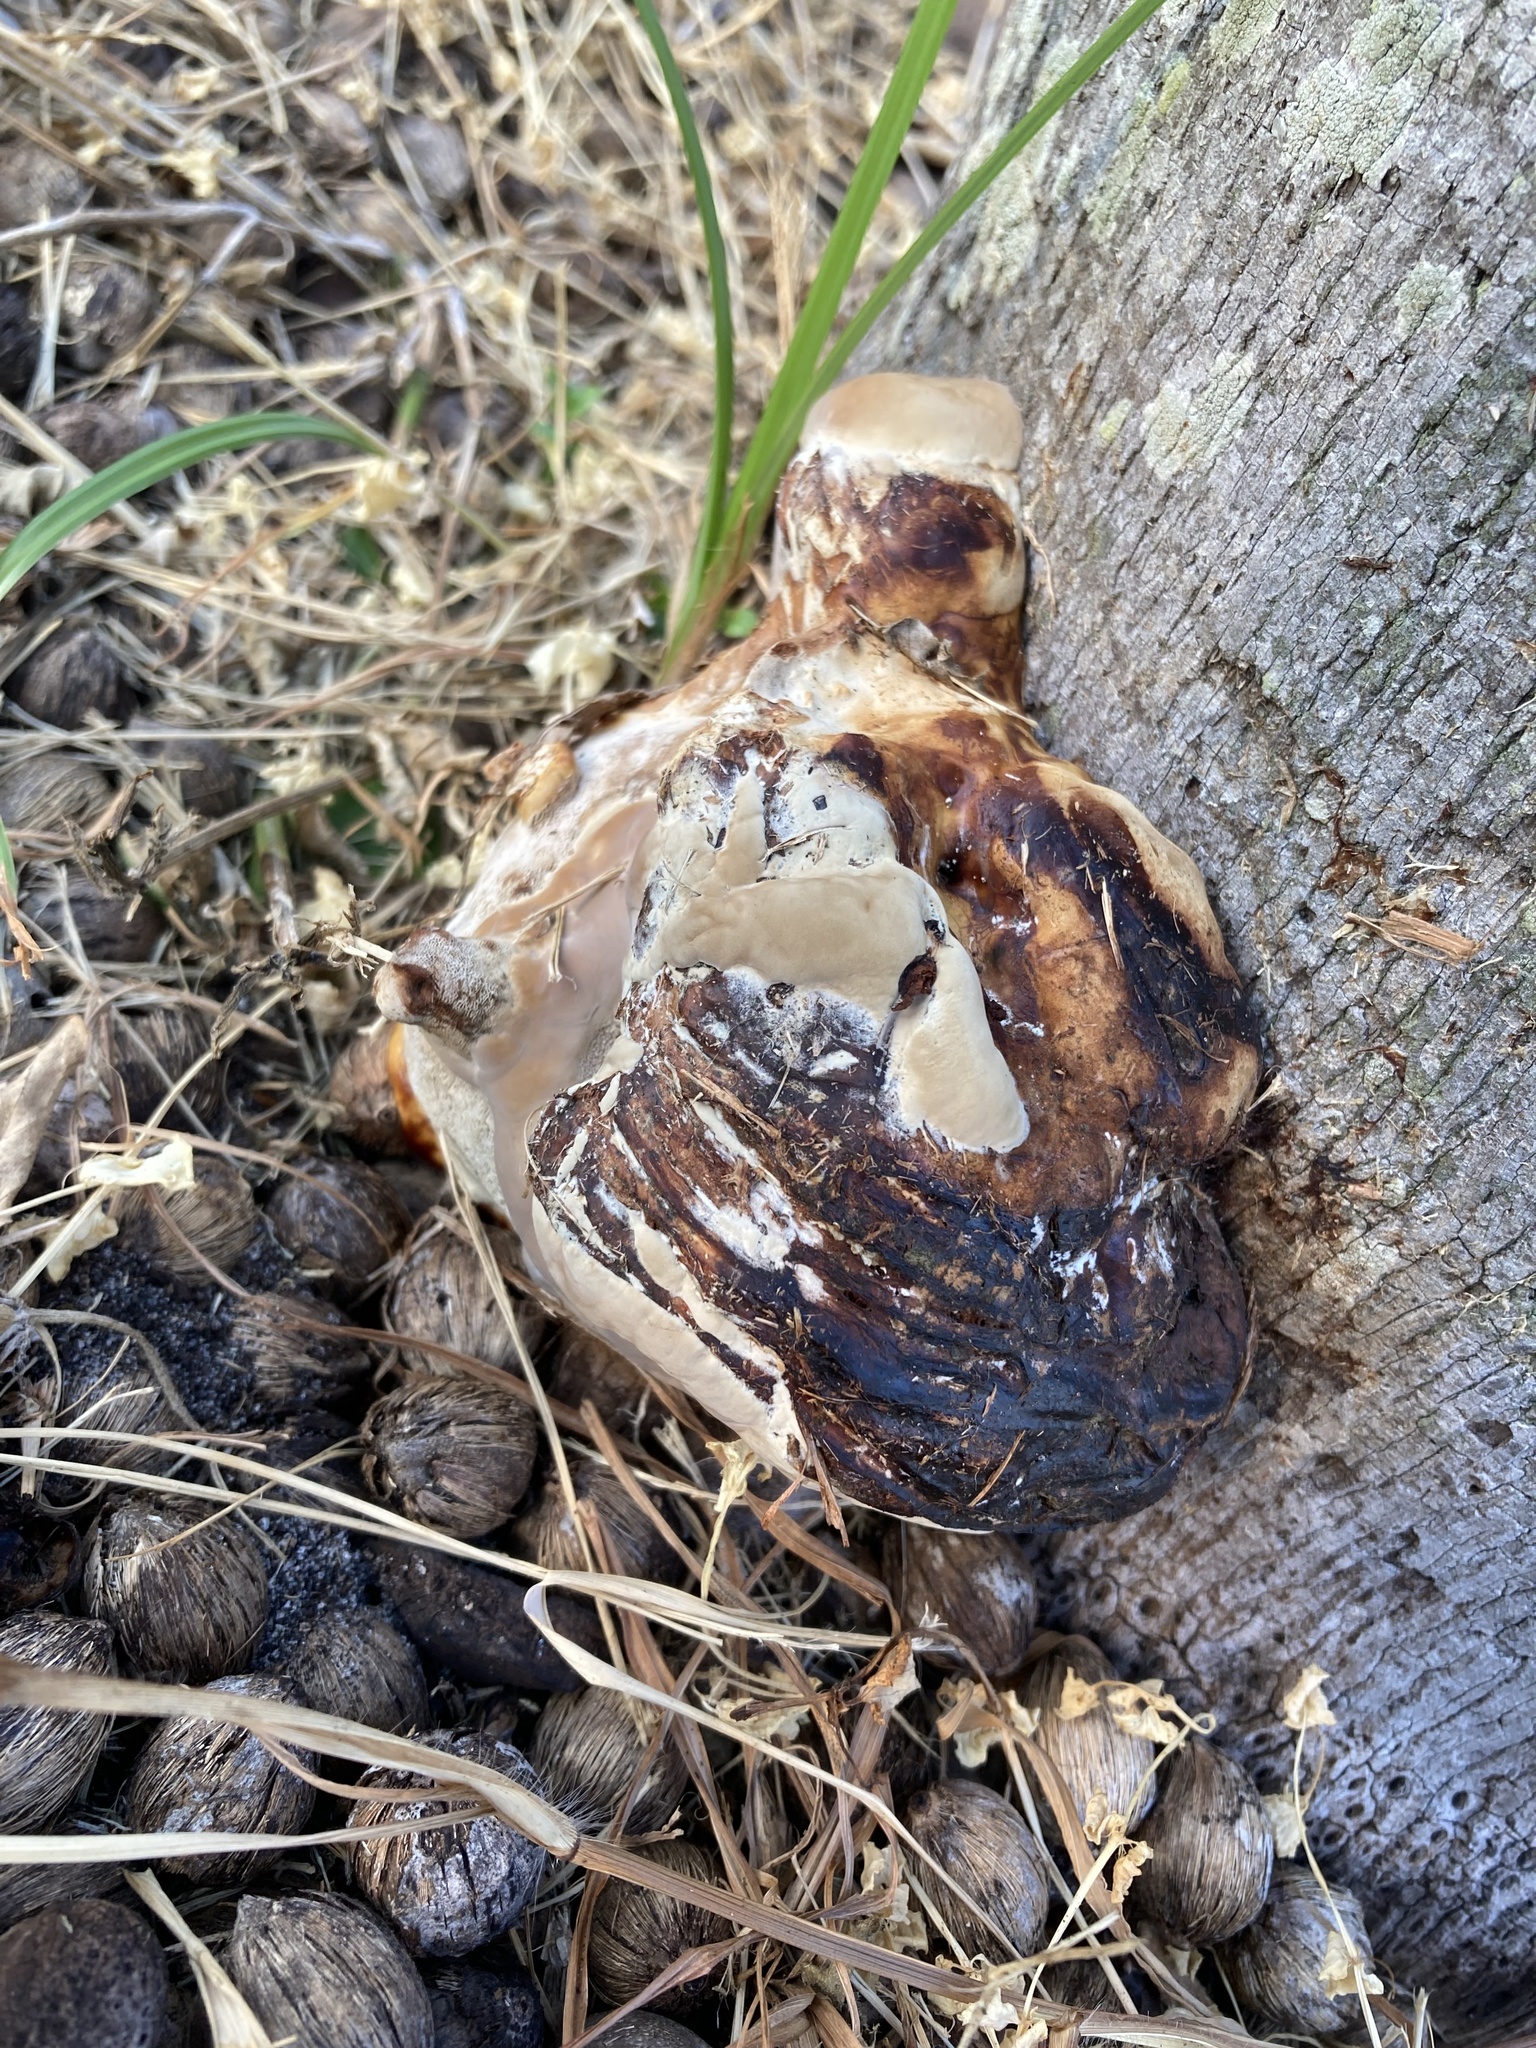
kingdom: Fungi
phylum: Basidiomycota
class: Agaricomycetes
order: Polyporales
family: Polyporaceae
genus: Ganoderma
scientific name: Ganoderma zonatum
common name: Ganoderma butt rot
